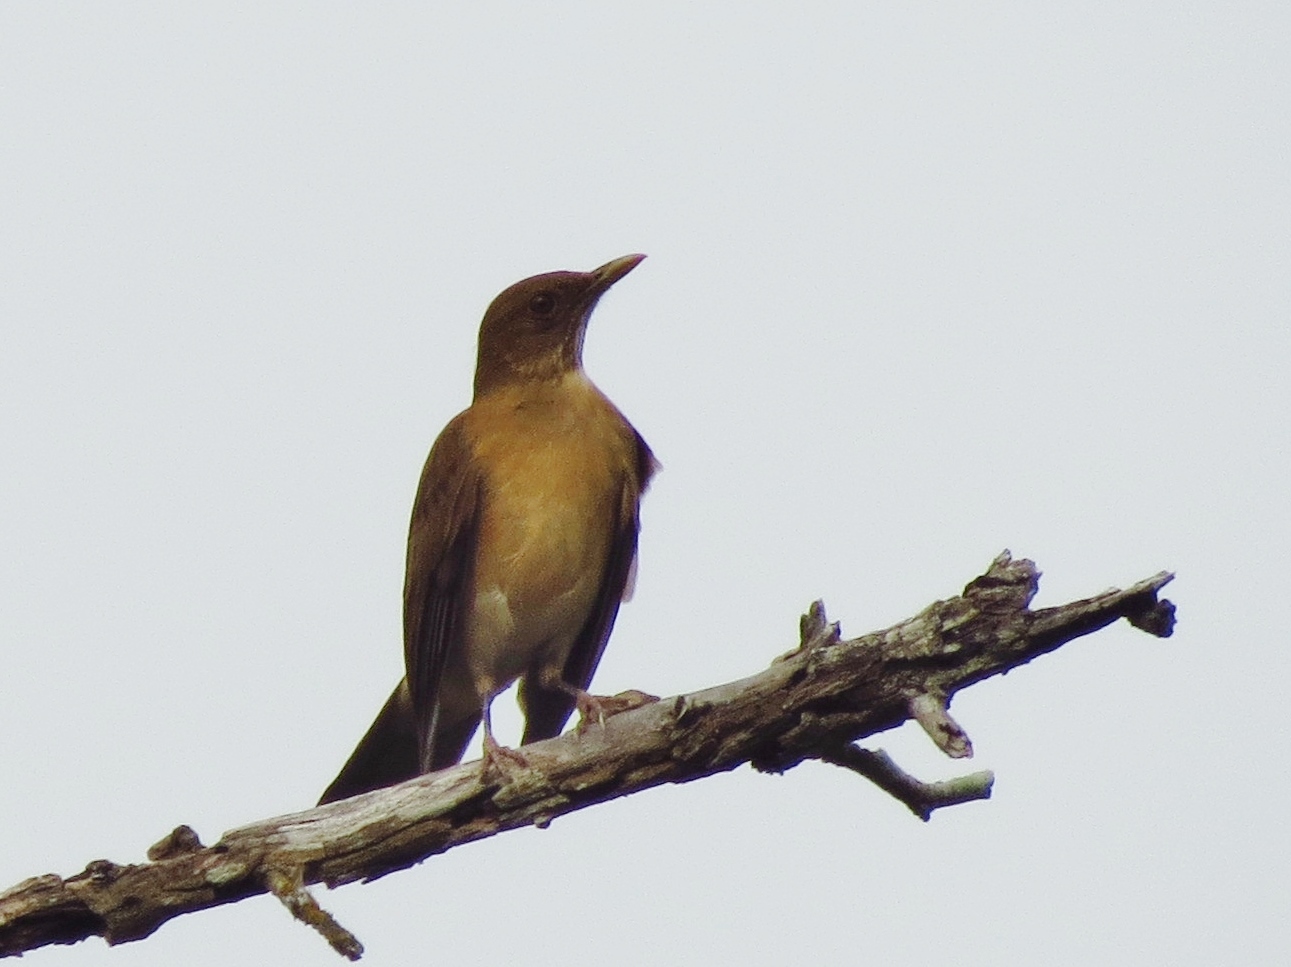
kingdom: Animalia
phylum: Chordata
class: Aves
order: Passeriformes
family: Turdidae
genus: Turdus
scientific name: Turdus grayi
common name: Clay-colored thrush
